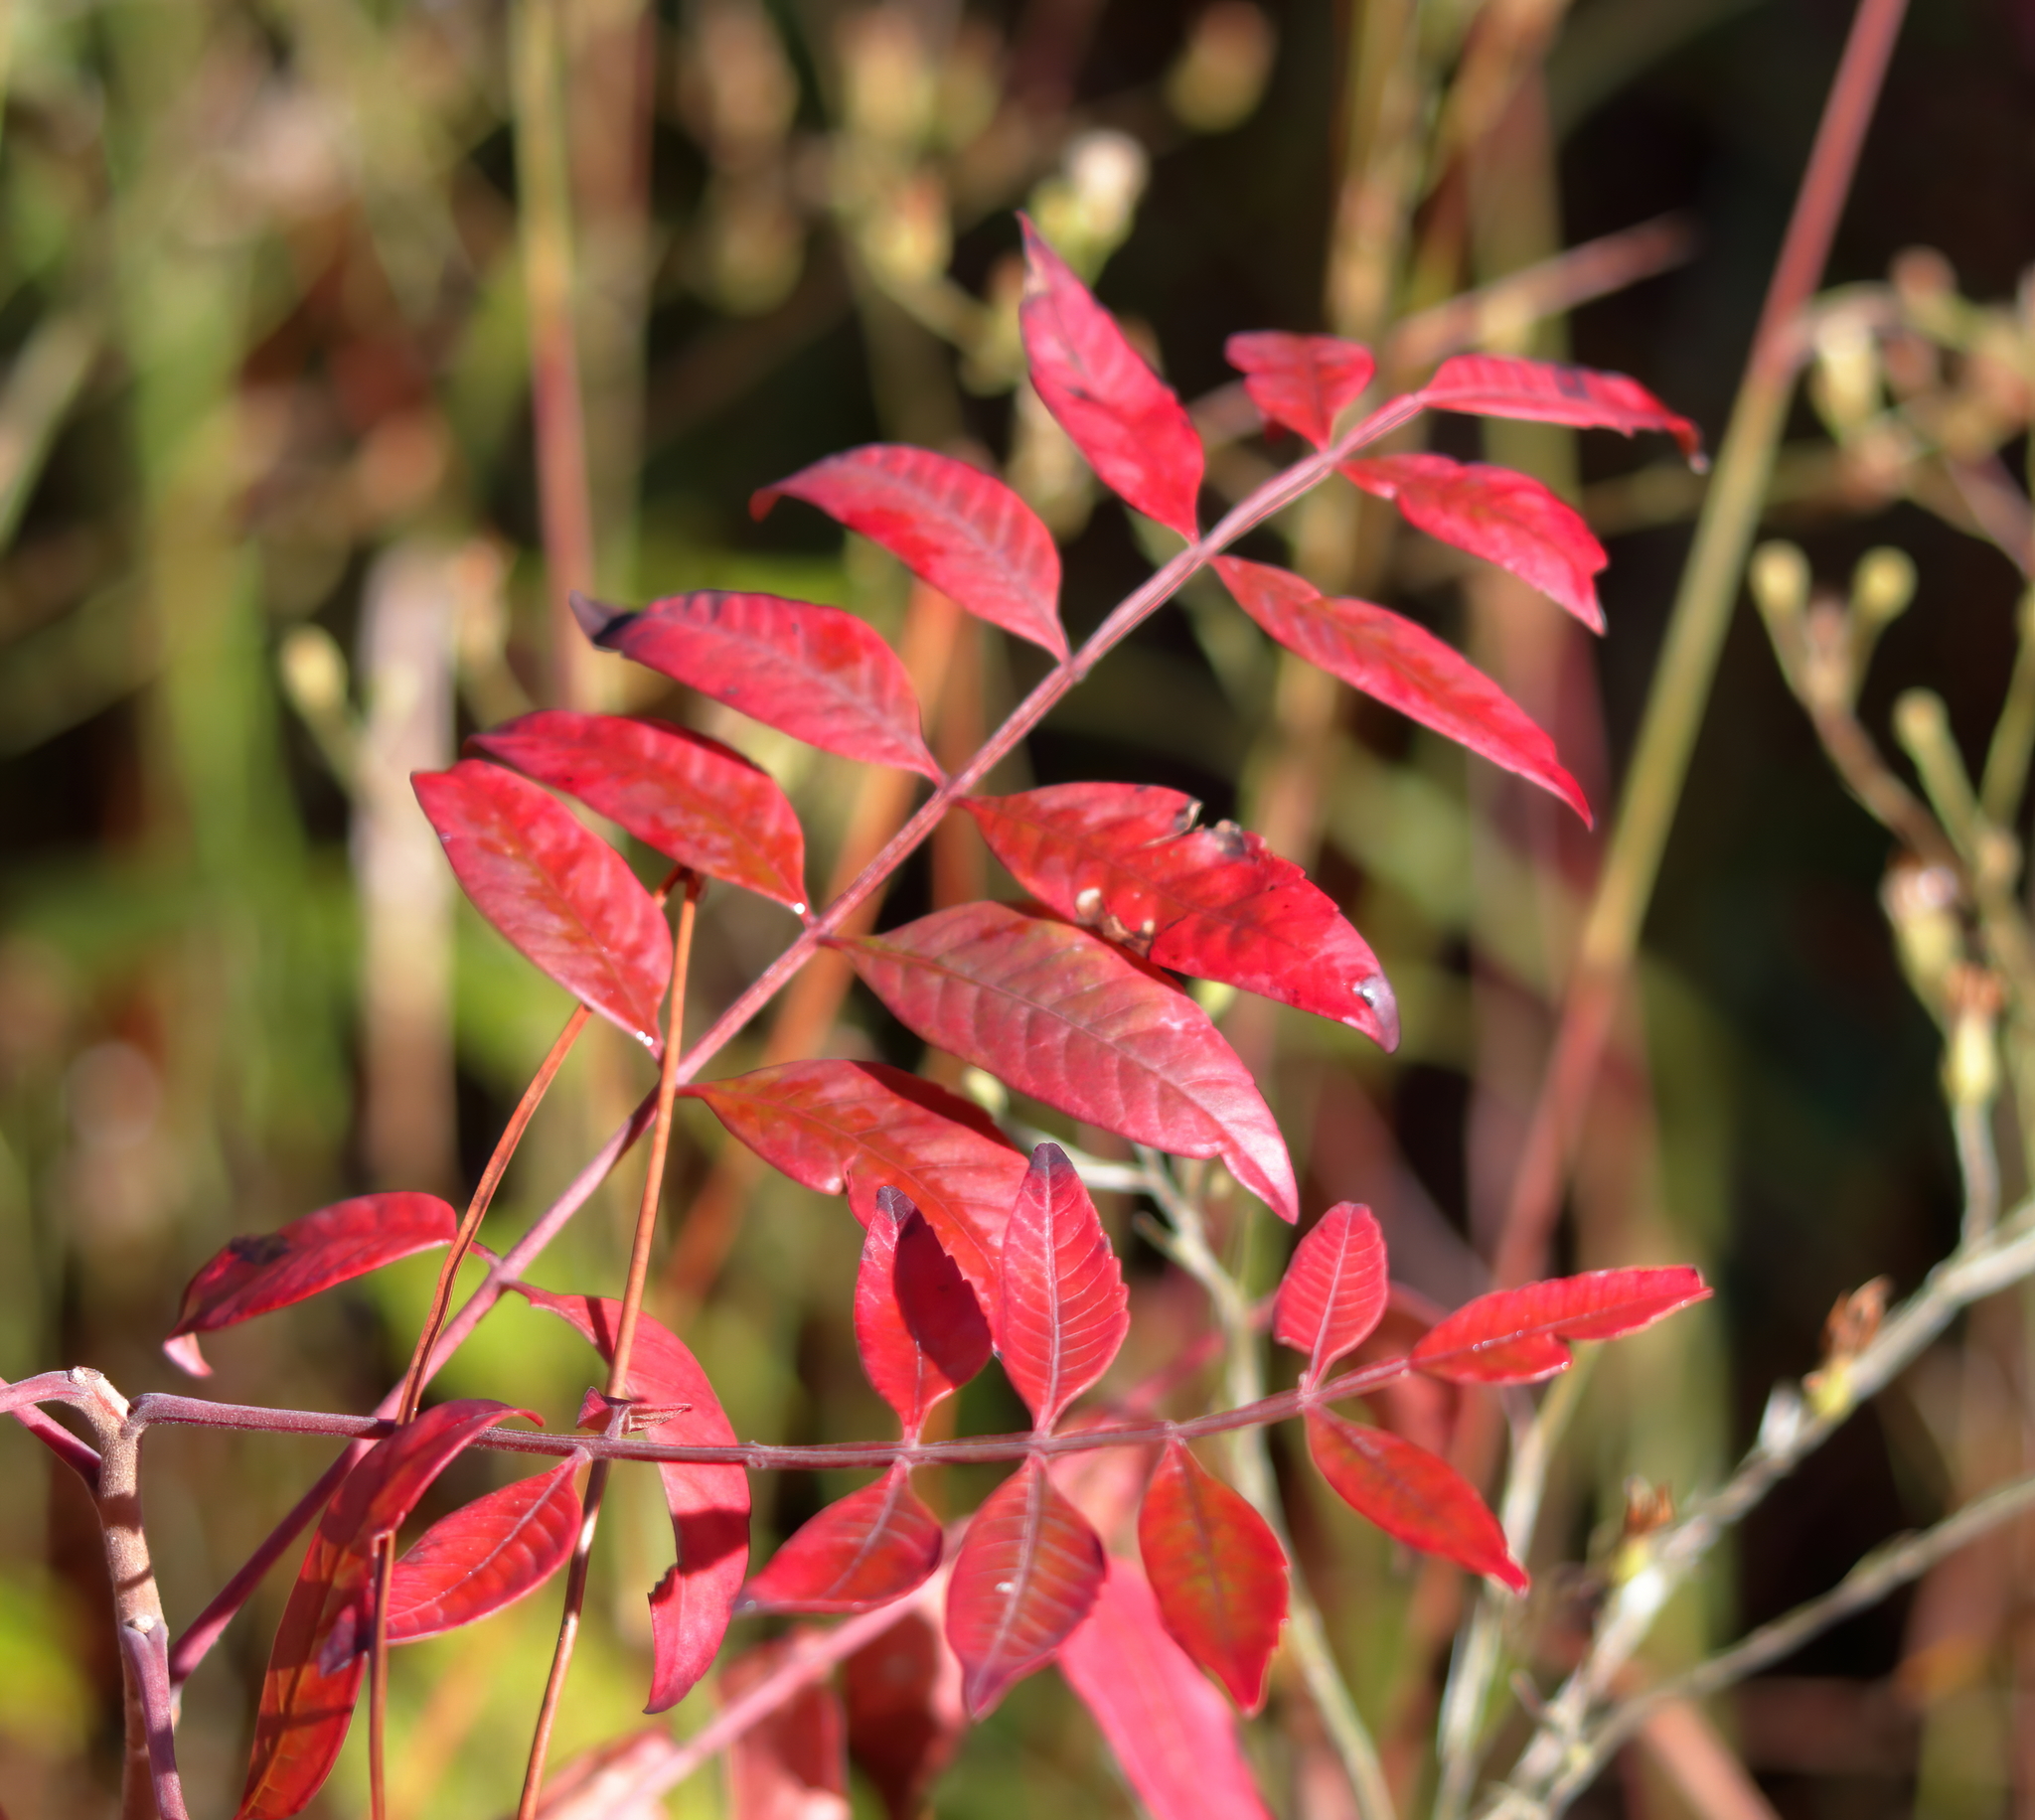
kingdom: Plantae
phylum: Tracheophyta
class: Magnoliopsida
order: Sapindales
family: Anacardiaceae
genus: Rhus
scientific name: Rhus copallina
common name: Shining sumac
